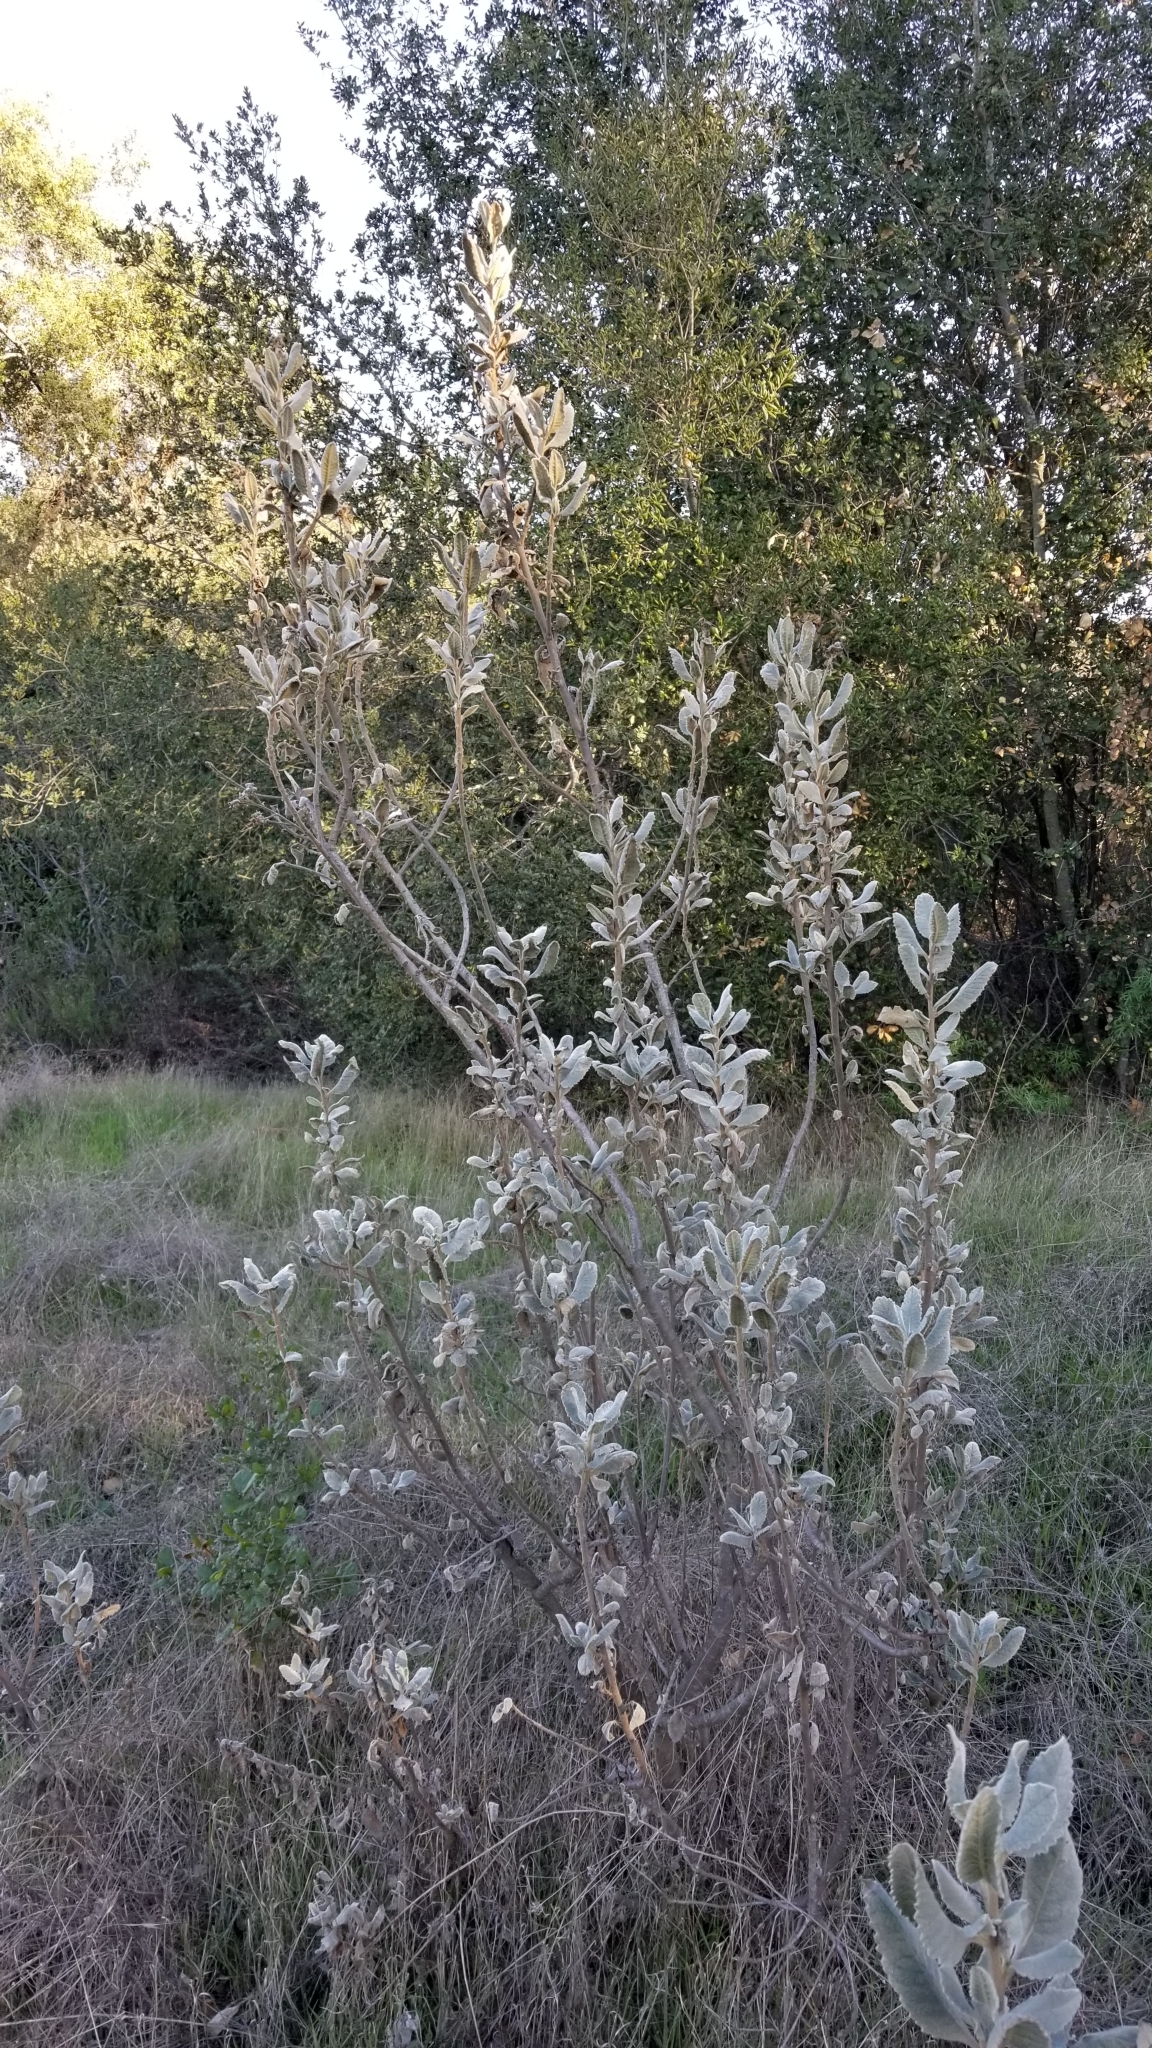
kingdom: Plantae
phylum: Tracheophyta
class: Magnoliopsida
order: Boraginales
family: Namaceae
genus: Eriodictyon
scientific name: Eriodictyon crassifolium
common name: Thick-leaf yerba-santa
